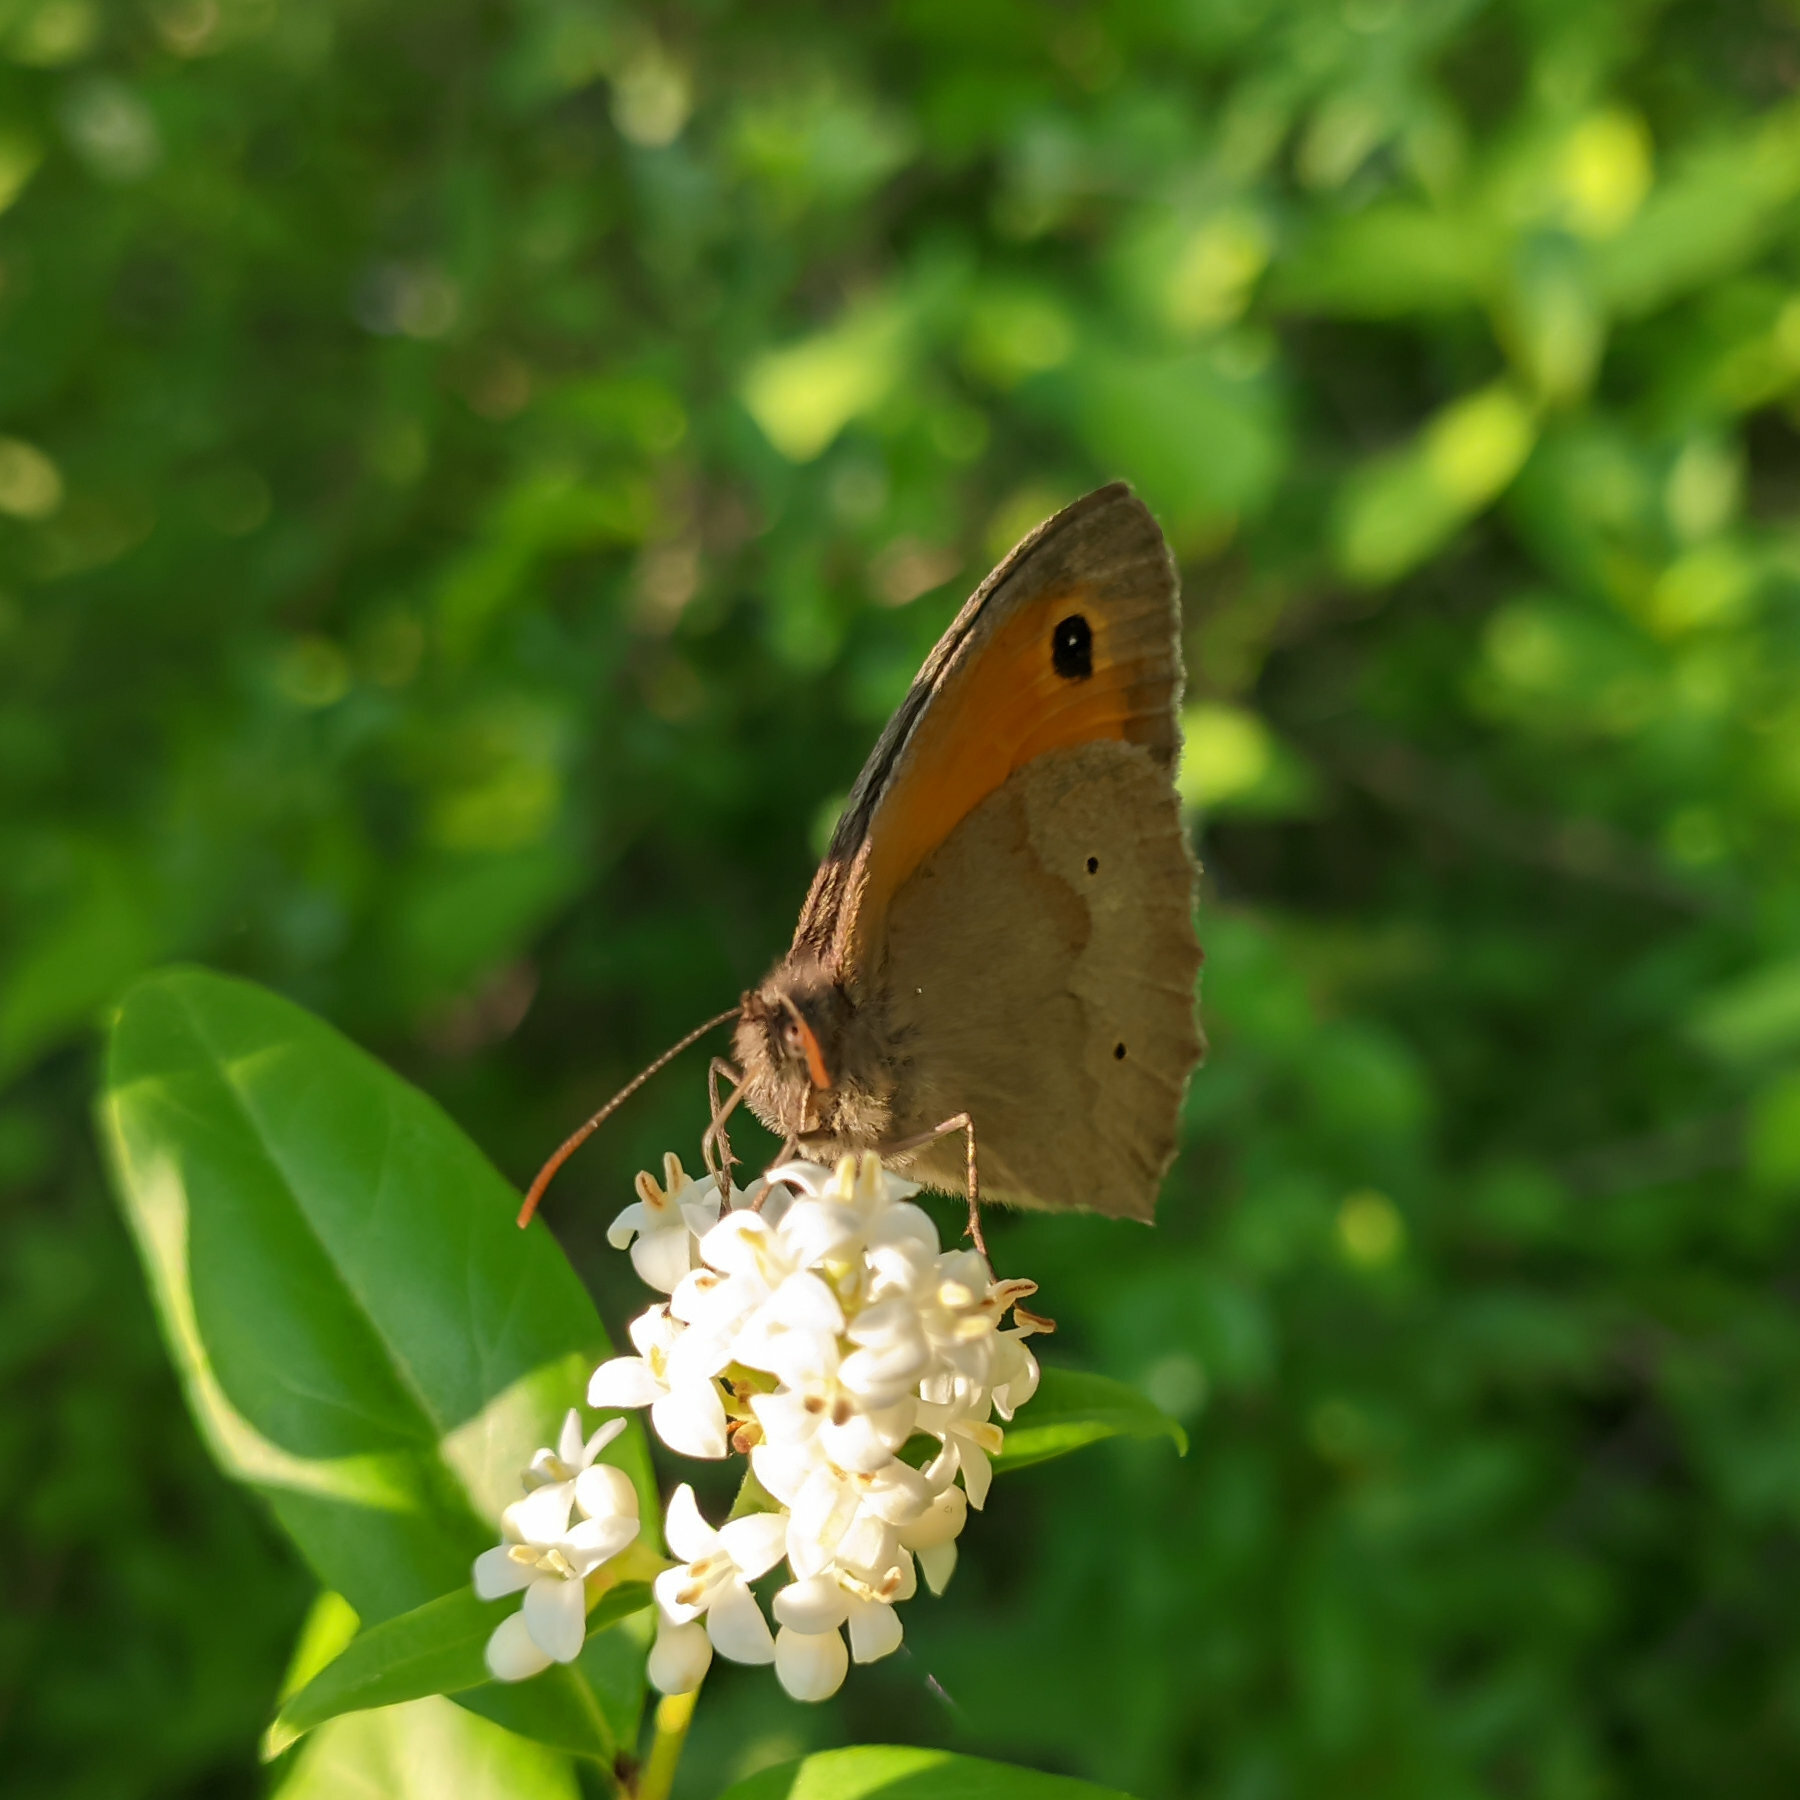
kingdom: Animalia
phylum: Arthropoda
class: Insecta
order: Lepidoptera
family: Nymphalidae
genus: Maniola
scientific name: Maniola jurtina
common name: Meadow brown
